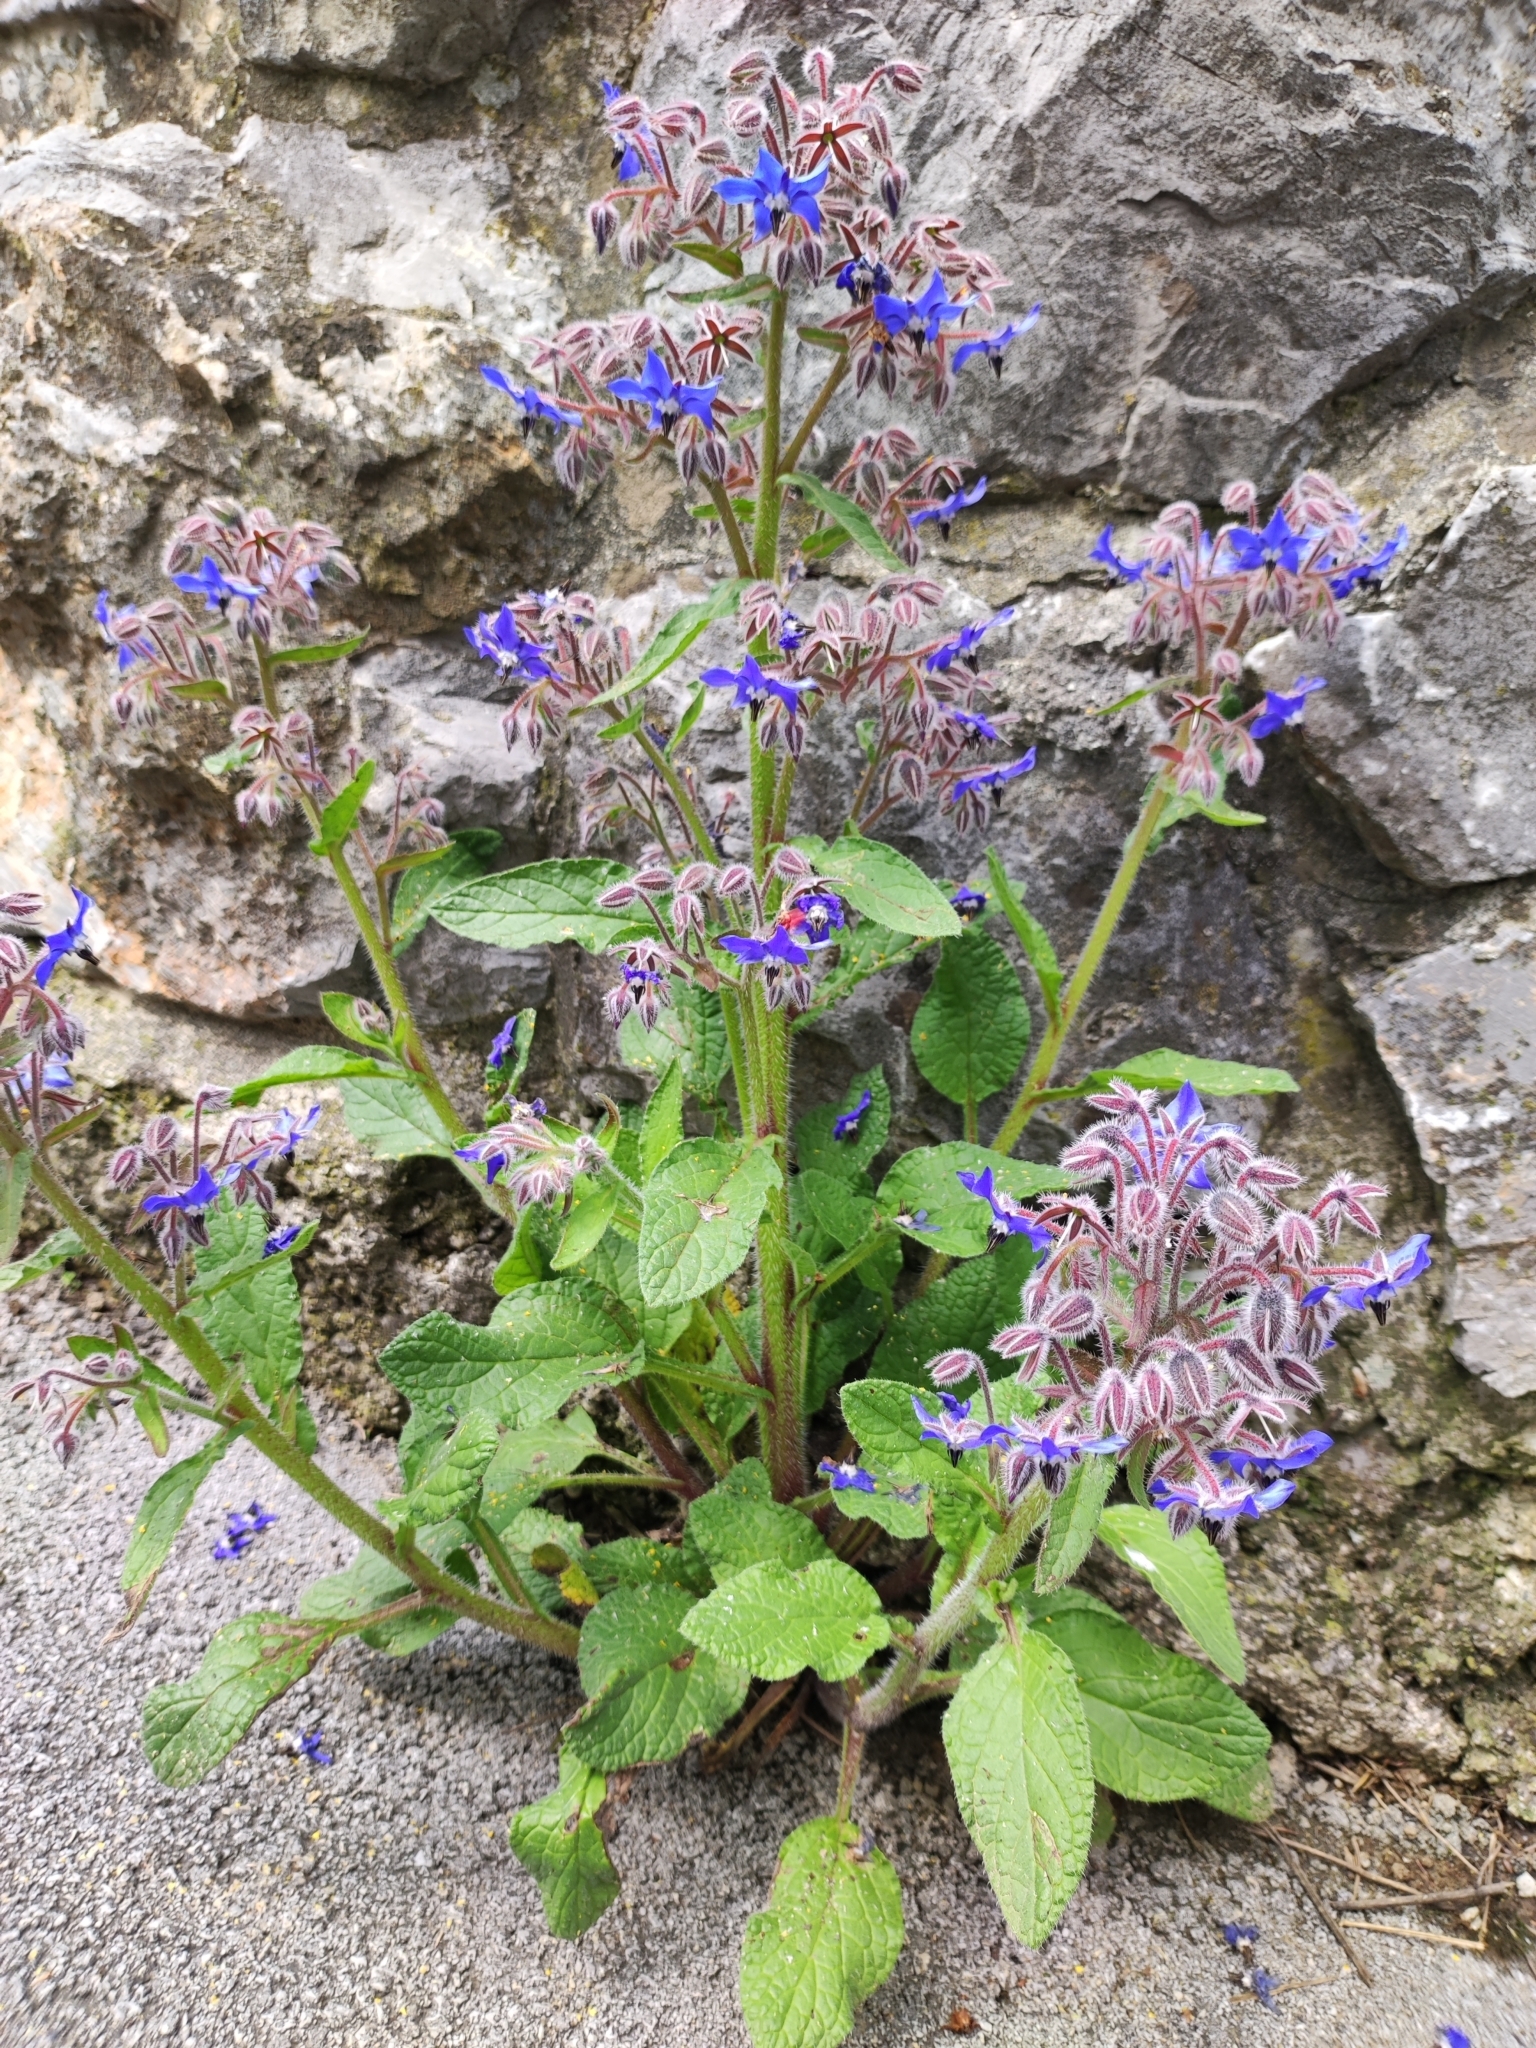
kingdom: Plantae
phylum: Tracheophyta
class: Magnoliopsida
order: Boraginales
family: Boraginaceae
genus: Borago
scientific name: Borago officinalis
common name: Borage
